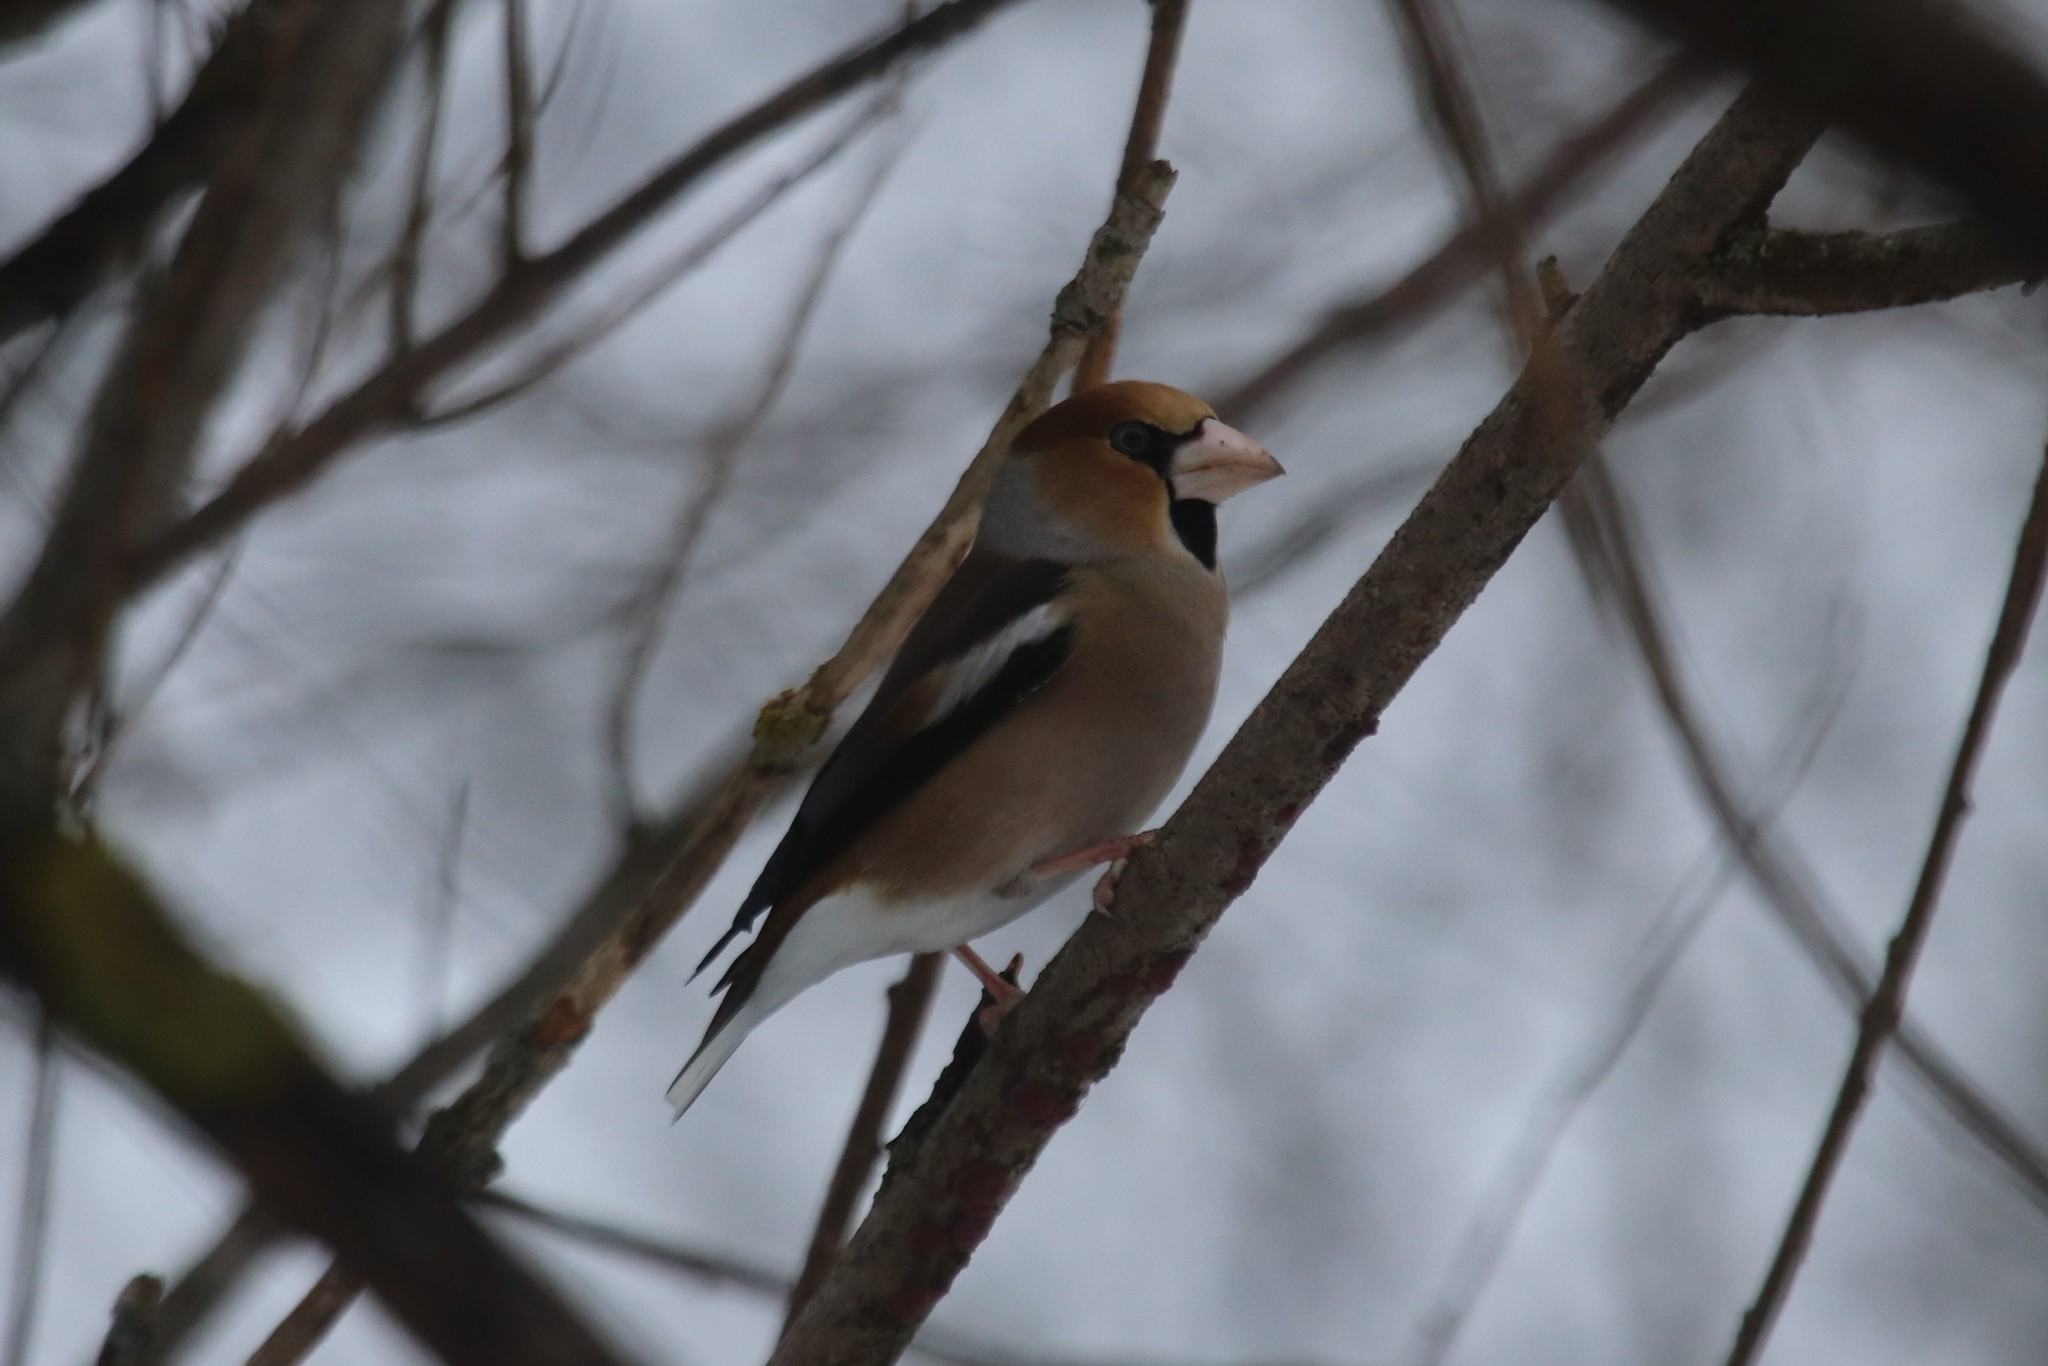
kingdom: Animalia
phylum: Chordata
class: Aves
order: Passeriformes
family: Fringillidae
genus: Coccothraustes
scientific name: Coccothraustes coccothraustes
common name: Hawfinch
